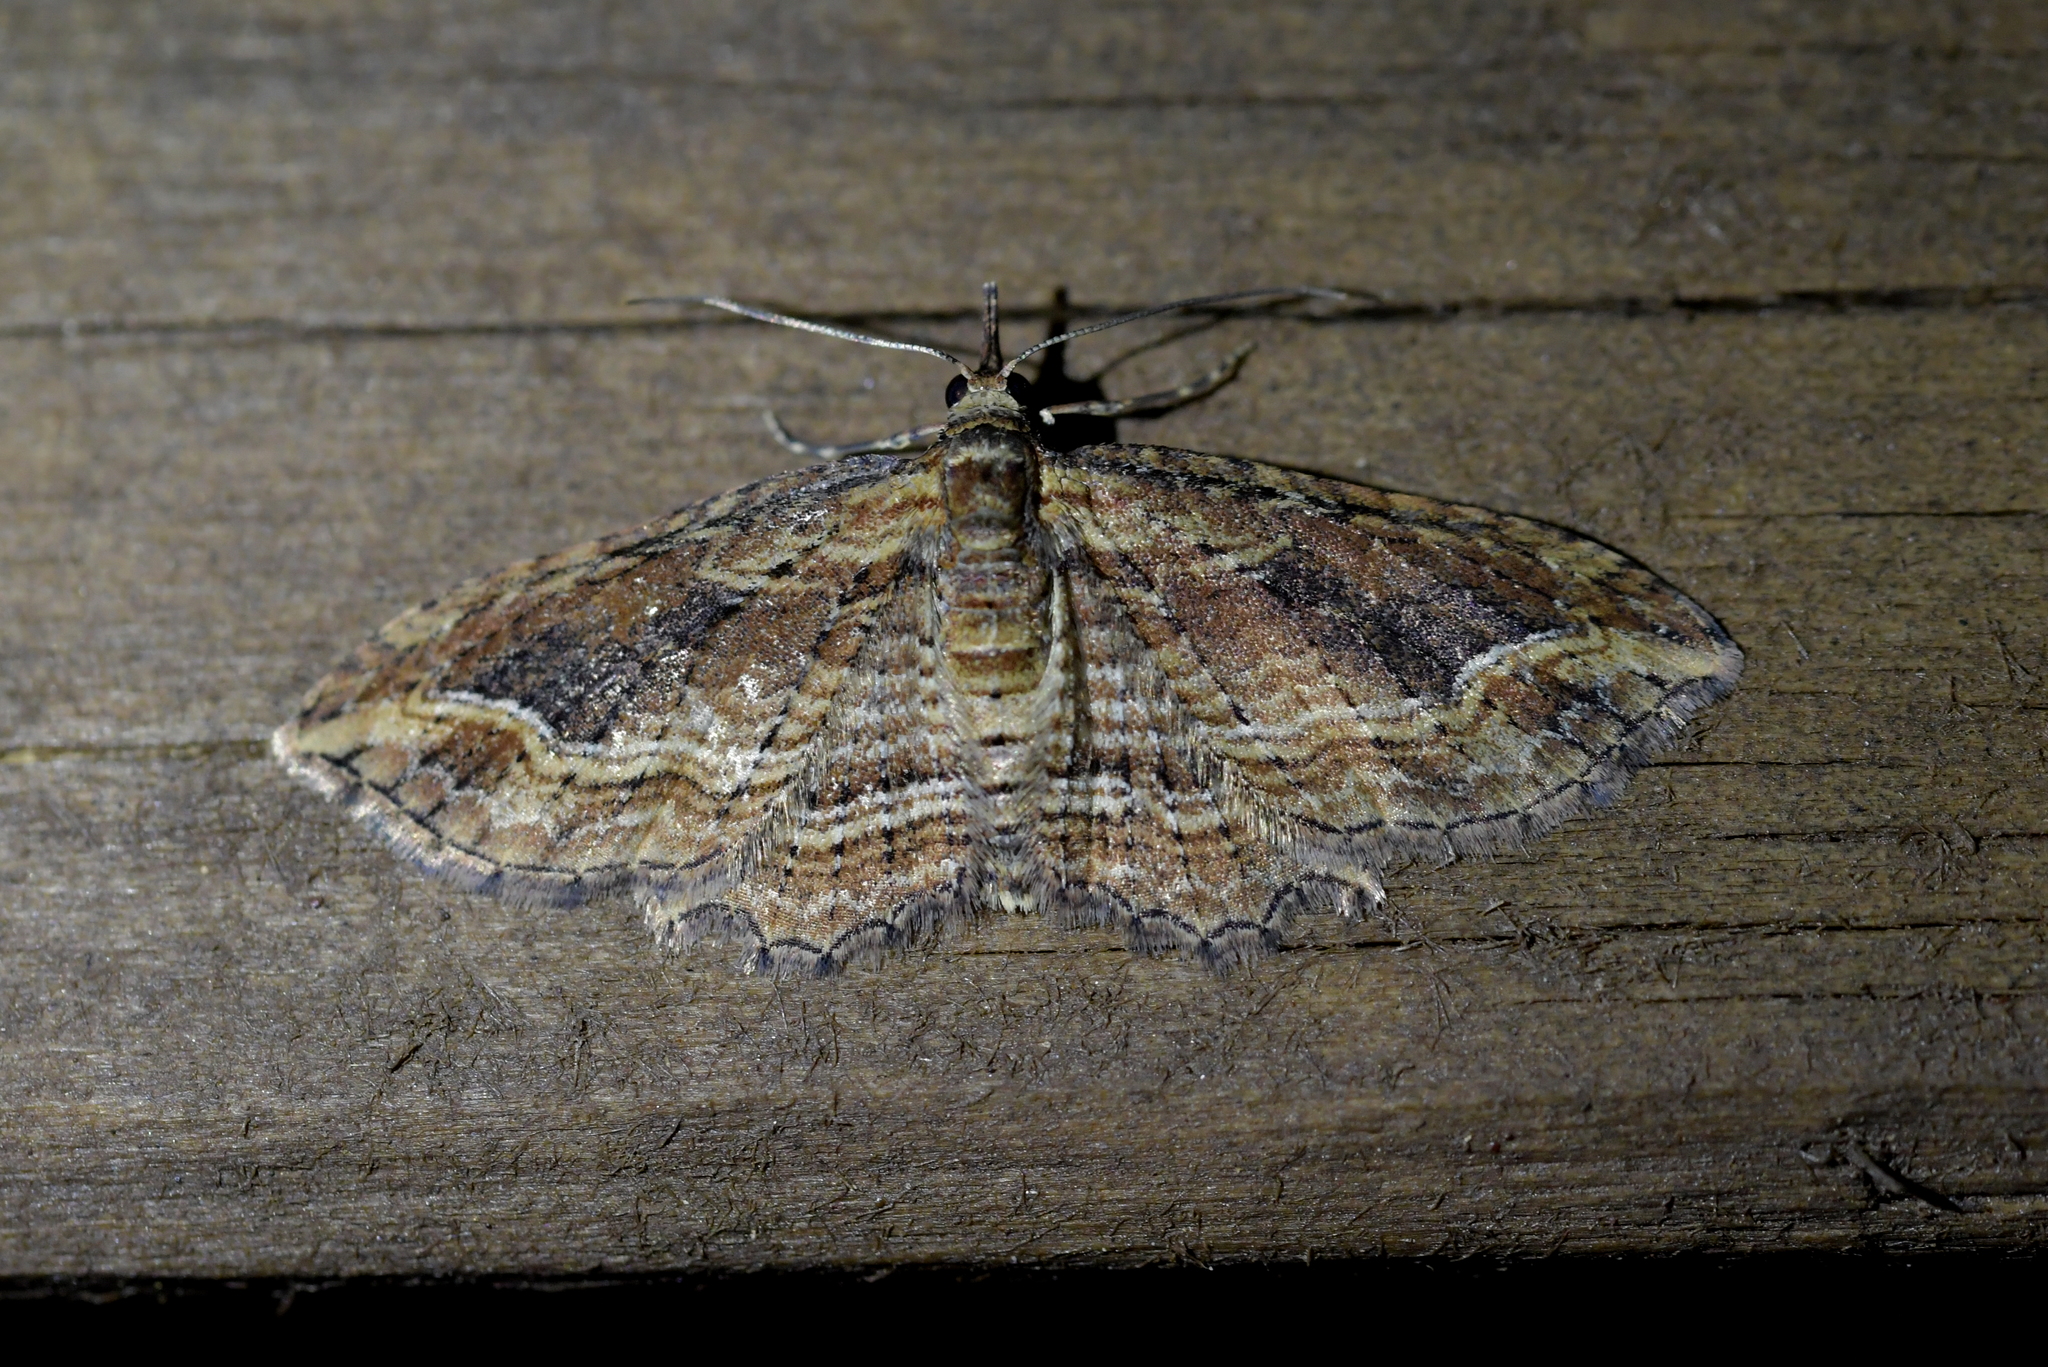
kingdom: Animalia
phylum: Arthropoda
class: Insecta
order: Lepidoptera
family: Geometridae
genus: Chloroclystis
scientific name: Chloroclystis filata
